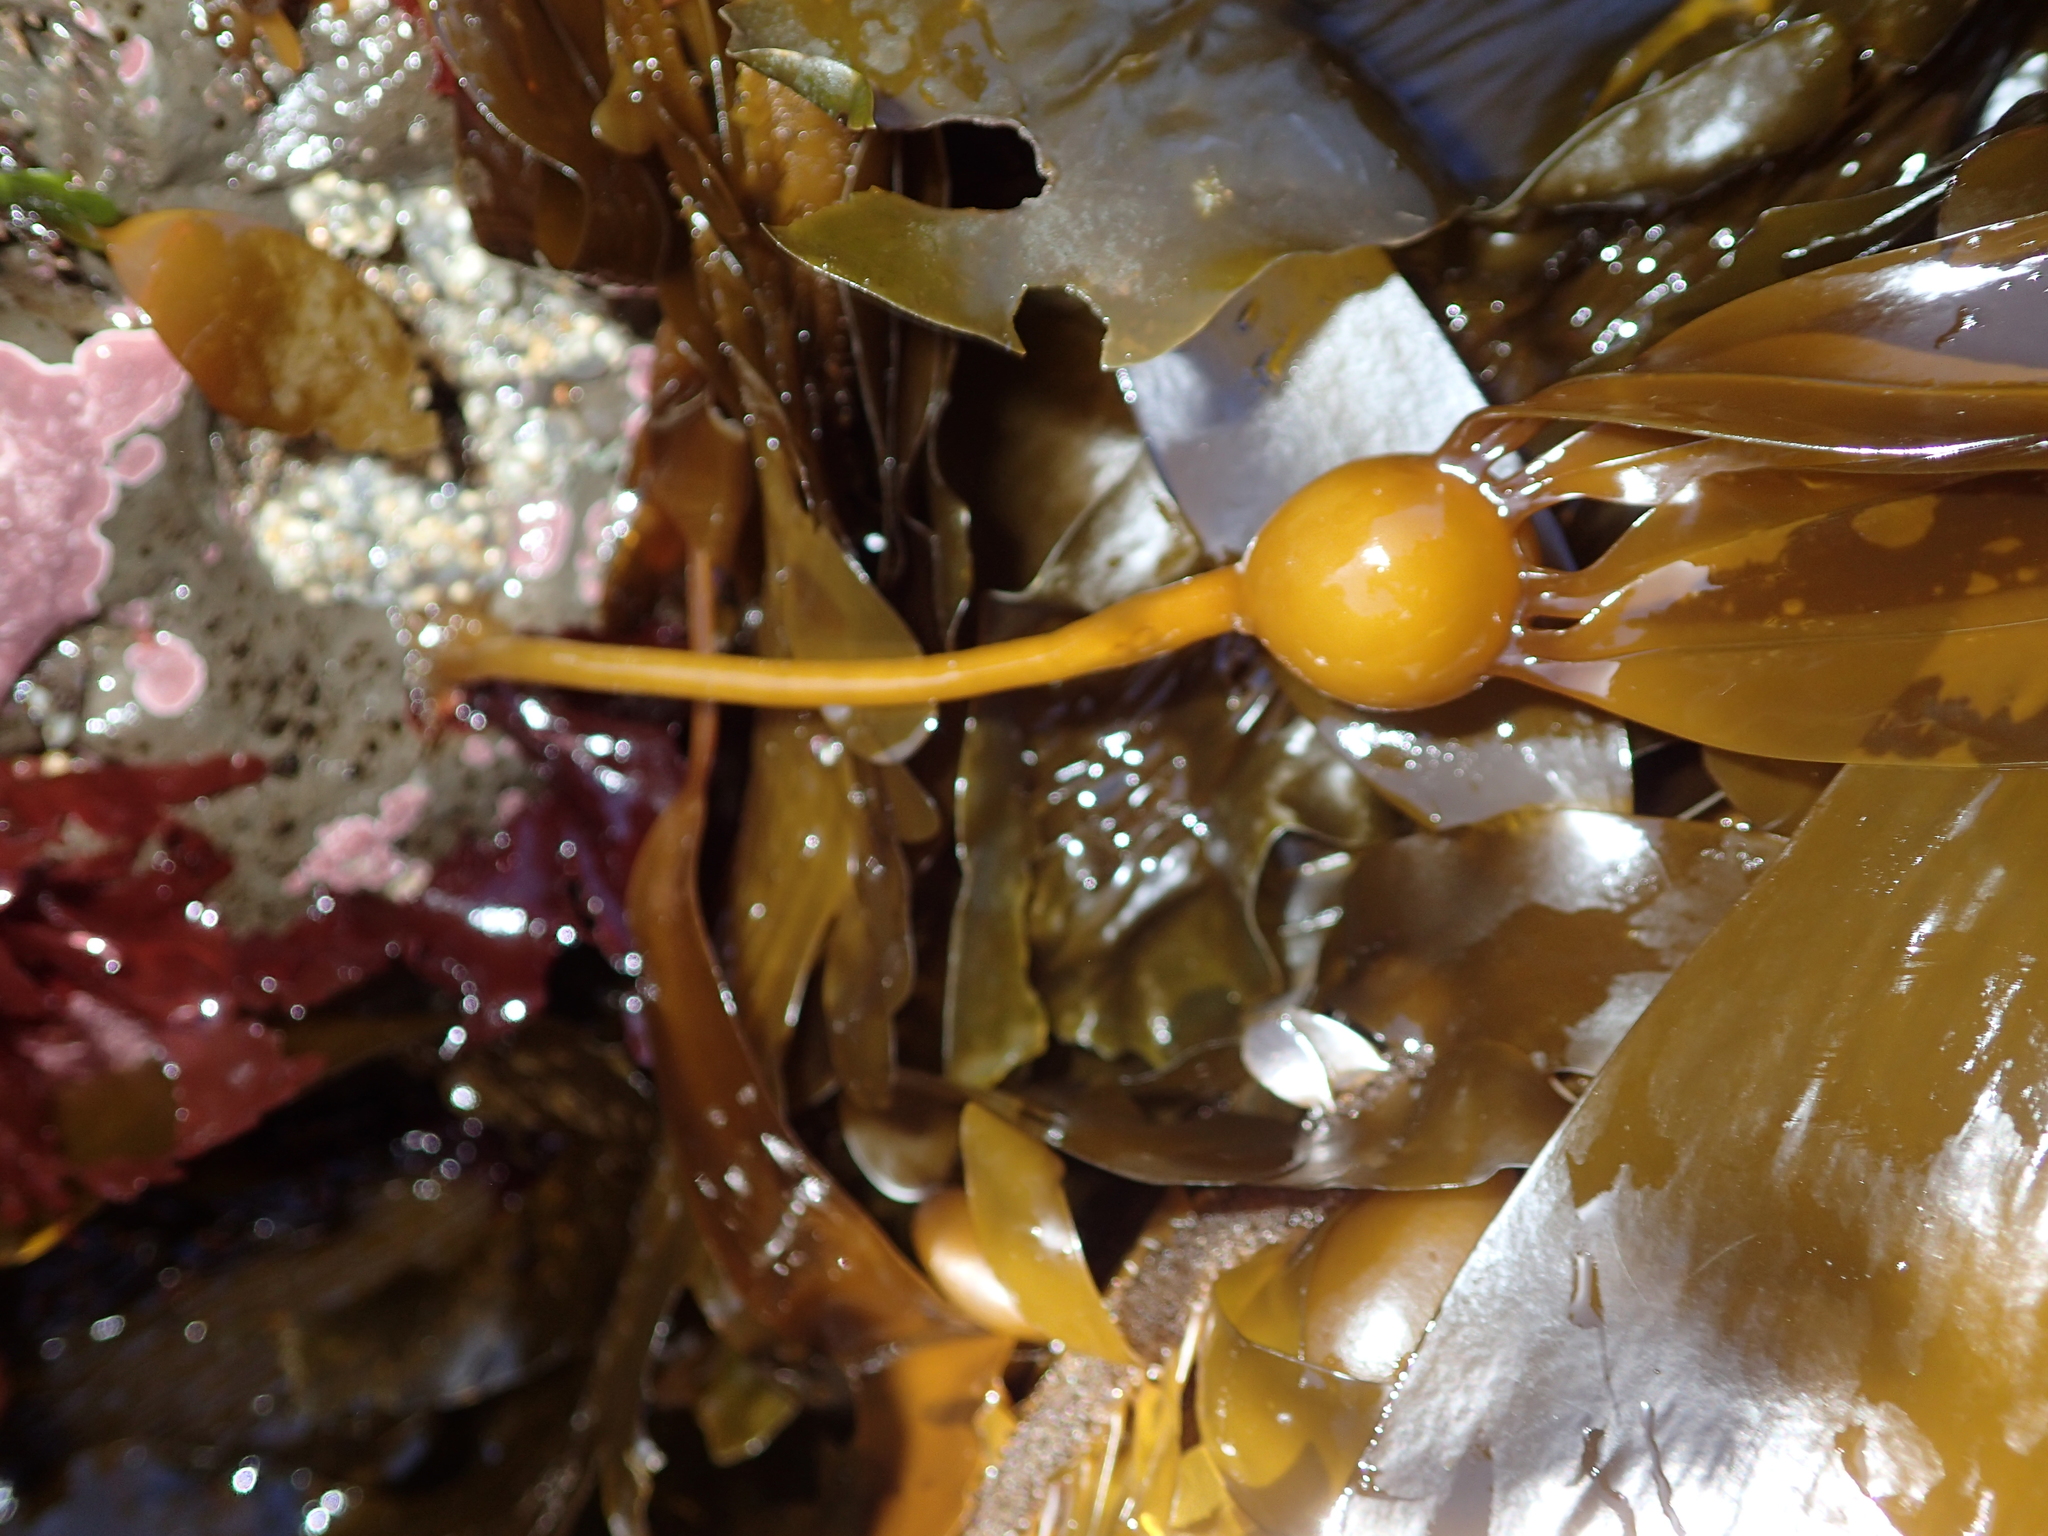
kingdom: Chromista
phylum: Ochrophyta
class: Phaeophyceae
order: Laminariales
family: Laminariaceae
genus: Nereocystis
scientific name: Nereocystis luetkeana
